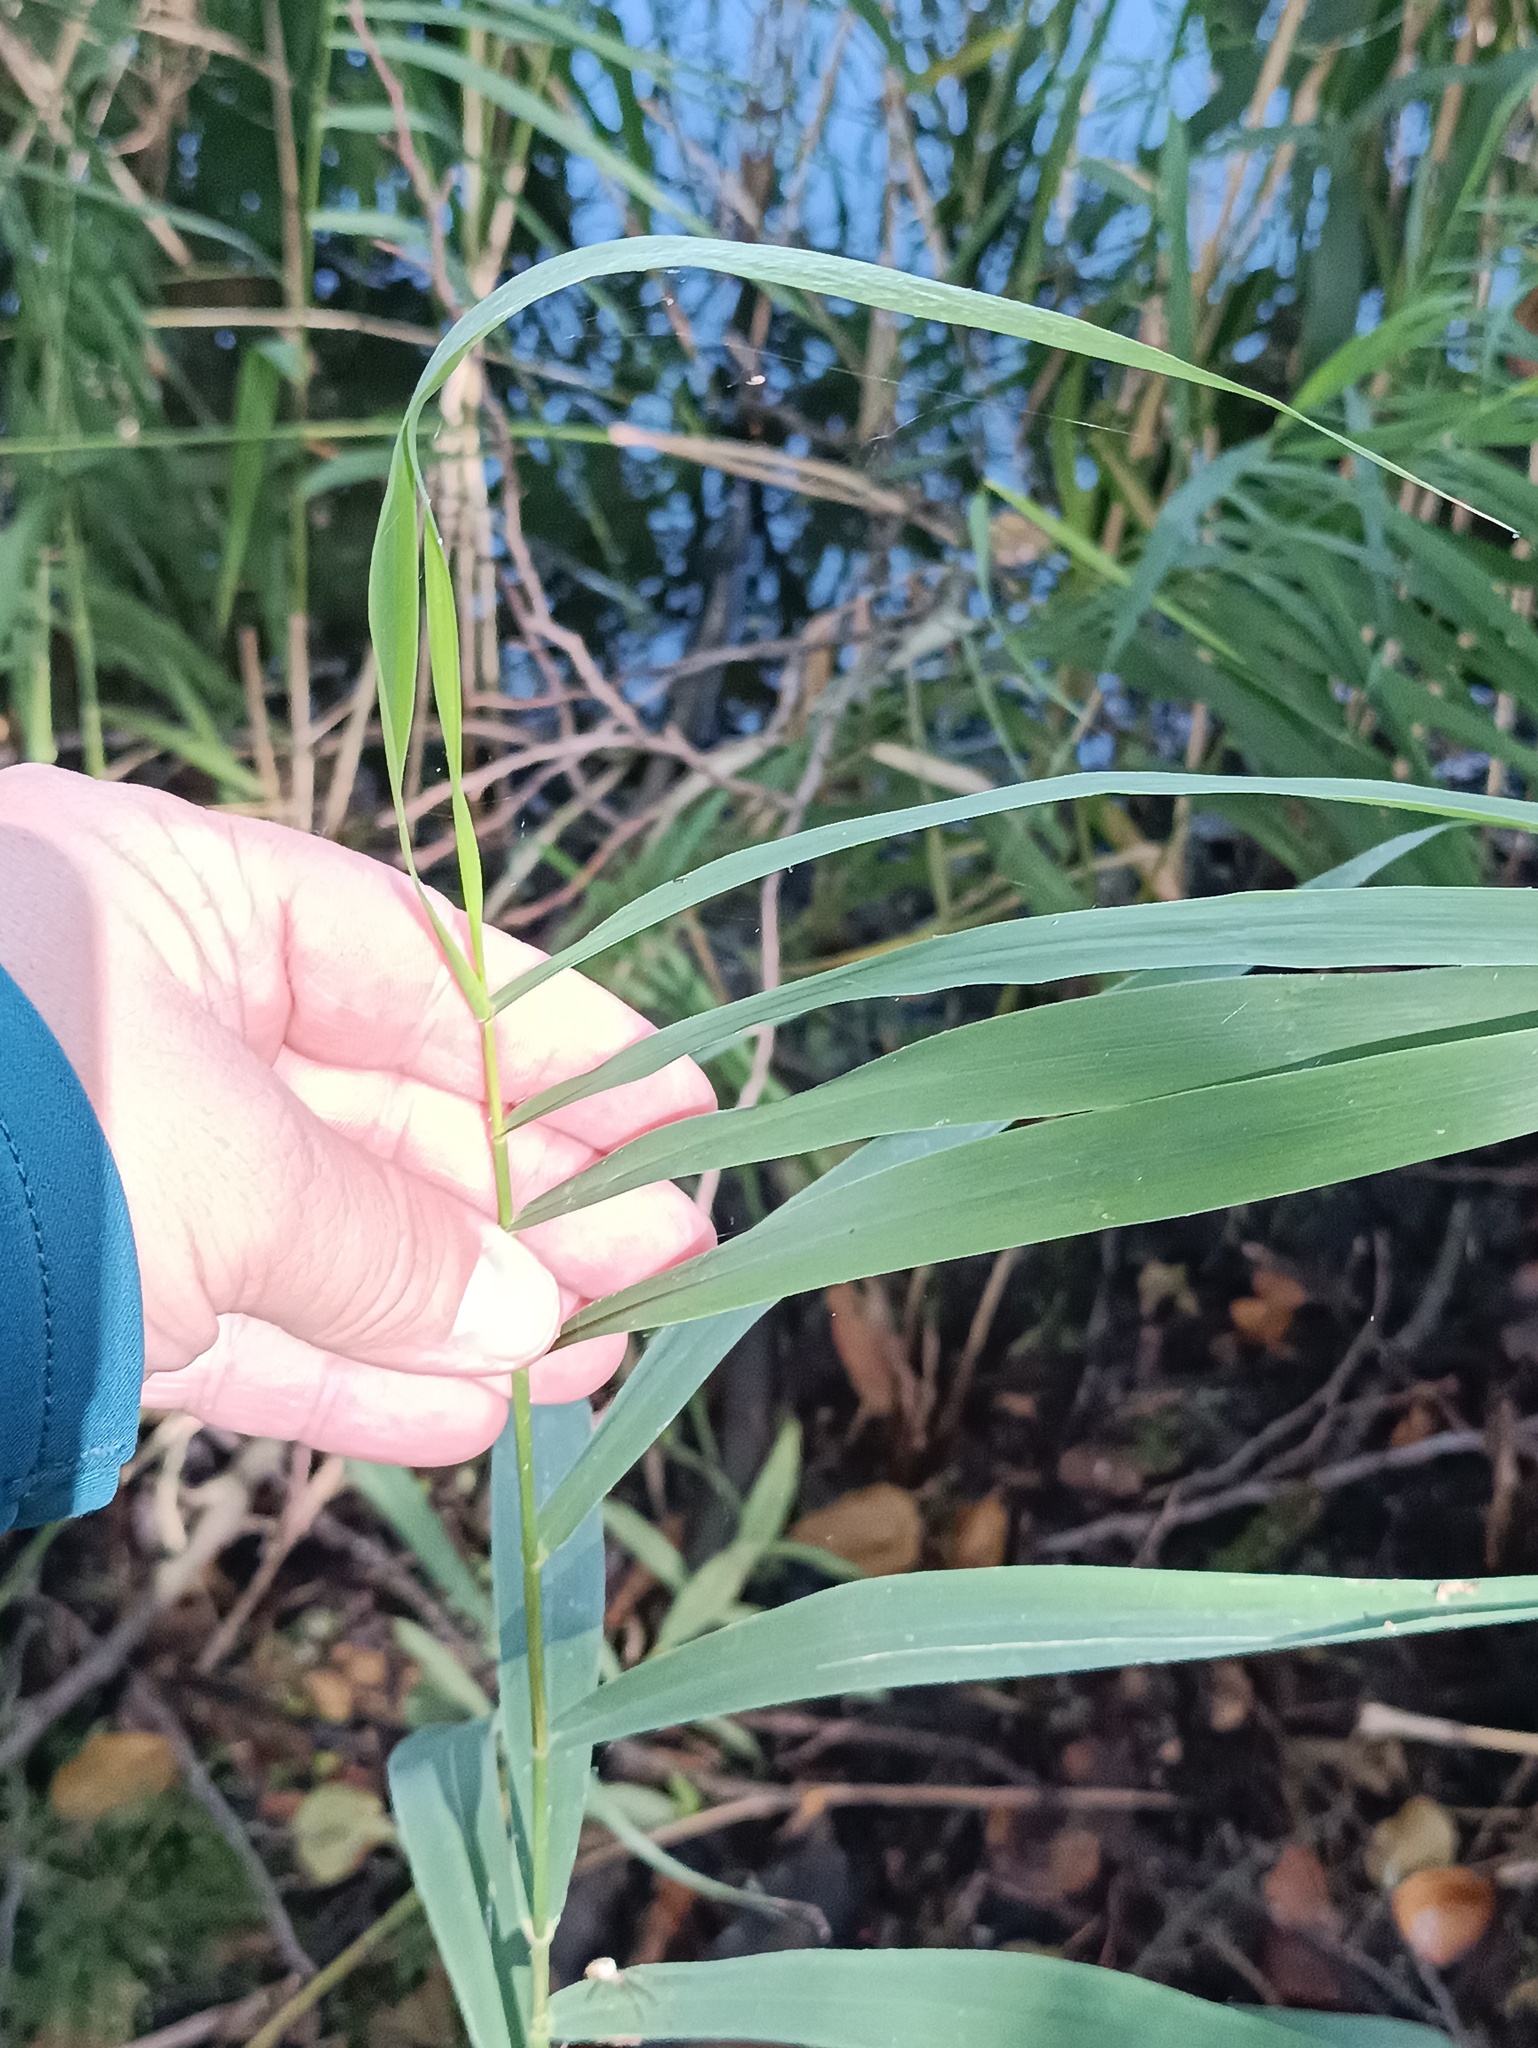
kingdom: Plantae
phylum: Tracheophyta
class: Liliopsida
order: Poales
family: Poaceae
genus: Phragmites
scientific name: Phragmites australis
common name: Common reed
